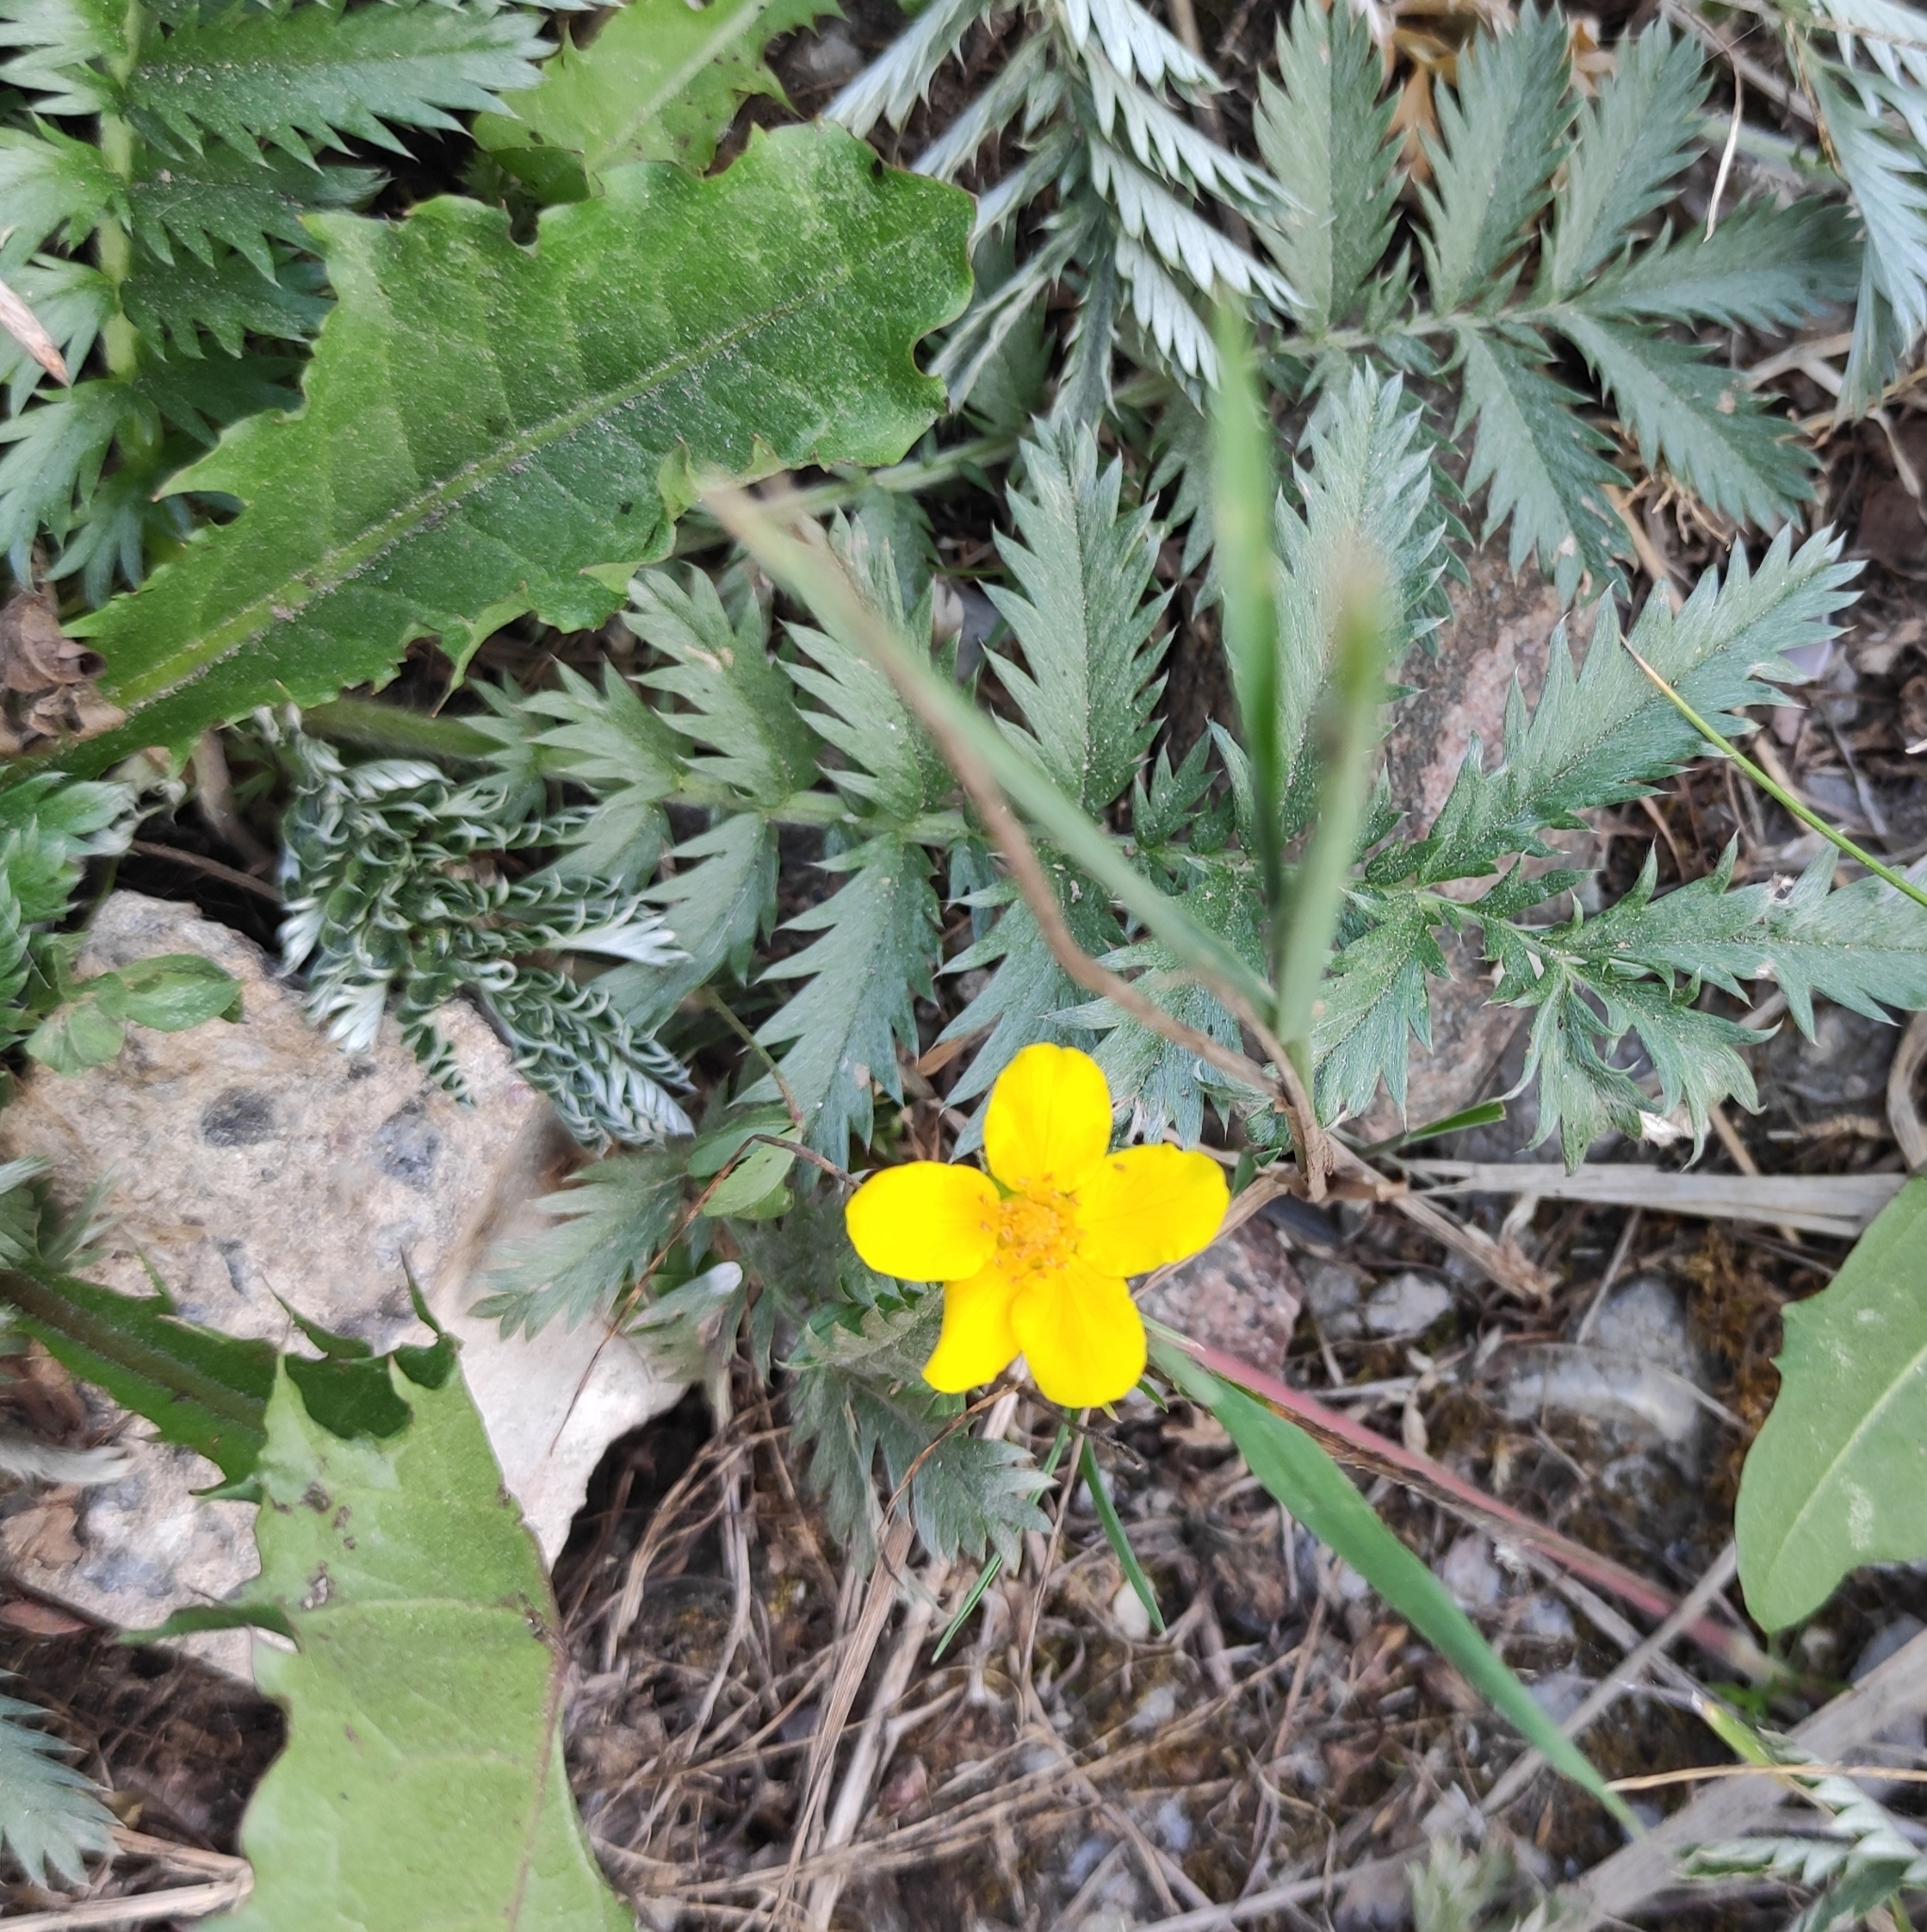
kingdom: Plantae
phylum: Tracheophyta
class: Magnoliopsida
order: Rosales
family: Rosaceae
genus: Argentina
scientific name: Argentina anserina
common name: Common silverweed
